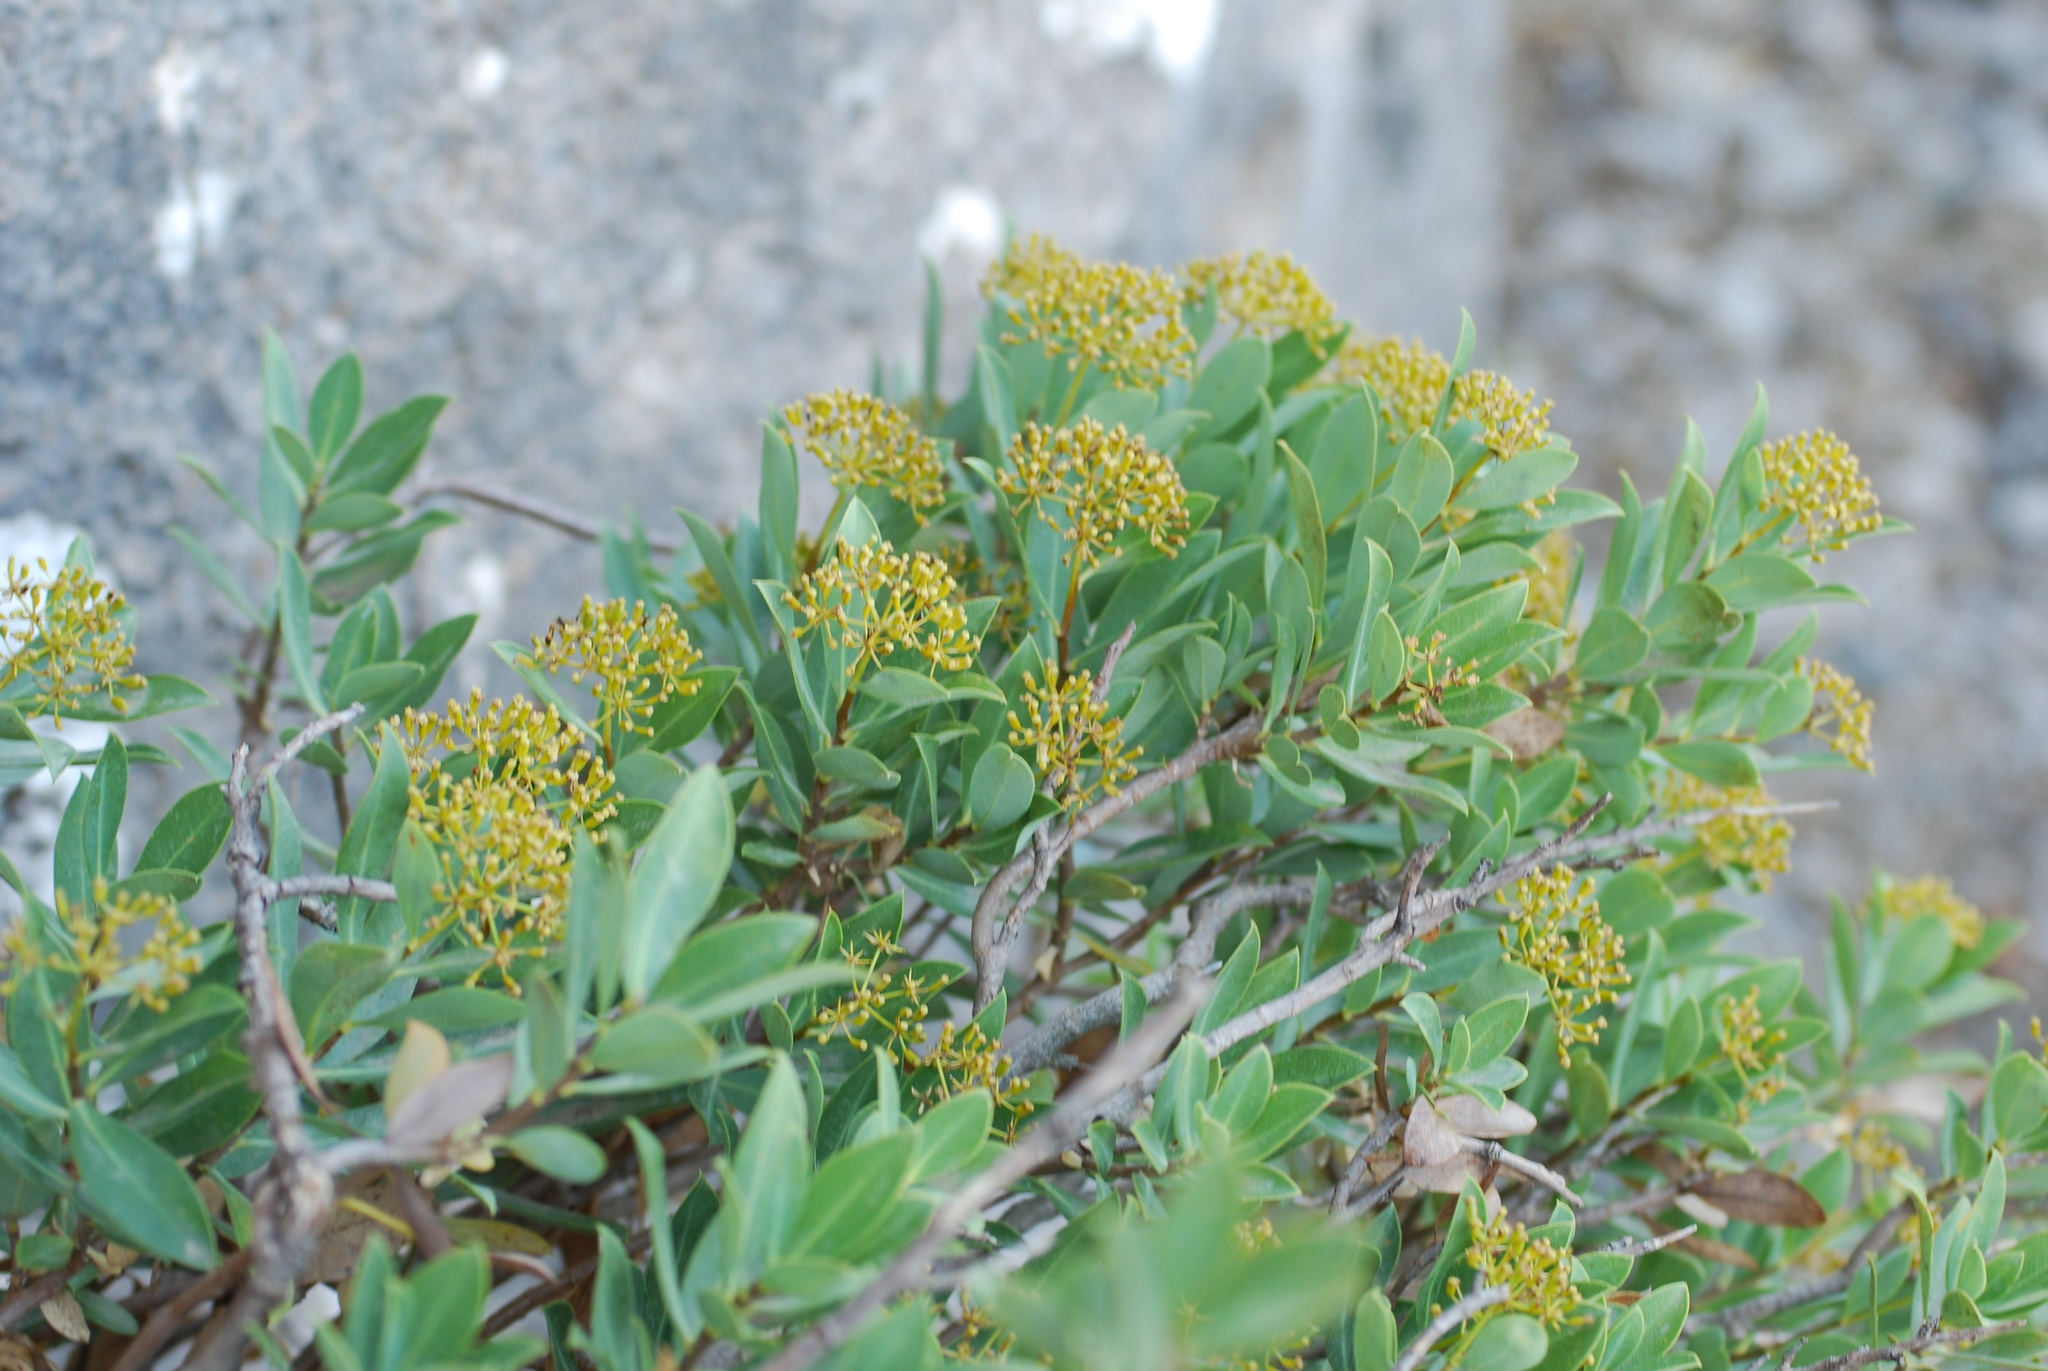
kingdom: Plantae
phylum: Tracheophyta
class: Magnoliopsida
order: Apiales
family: Apiaceae
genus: Bupleurum
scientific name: Bupleurum fruticosum
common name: Shrubby hare's-ear
